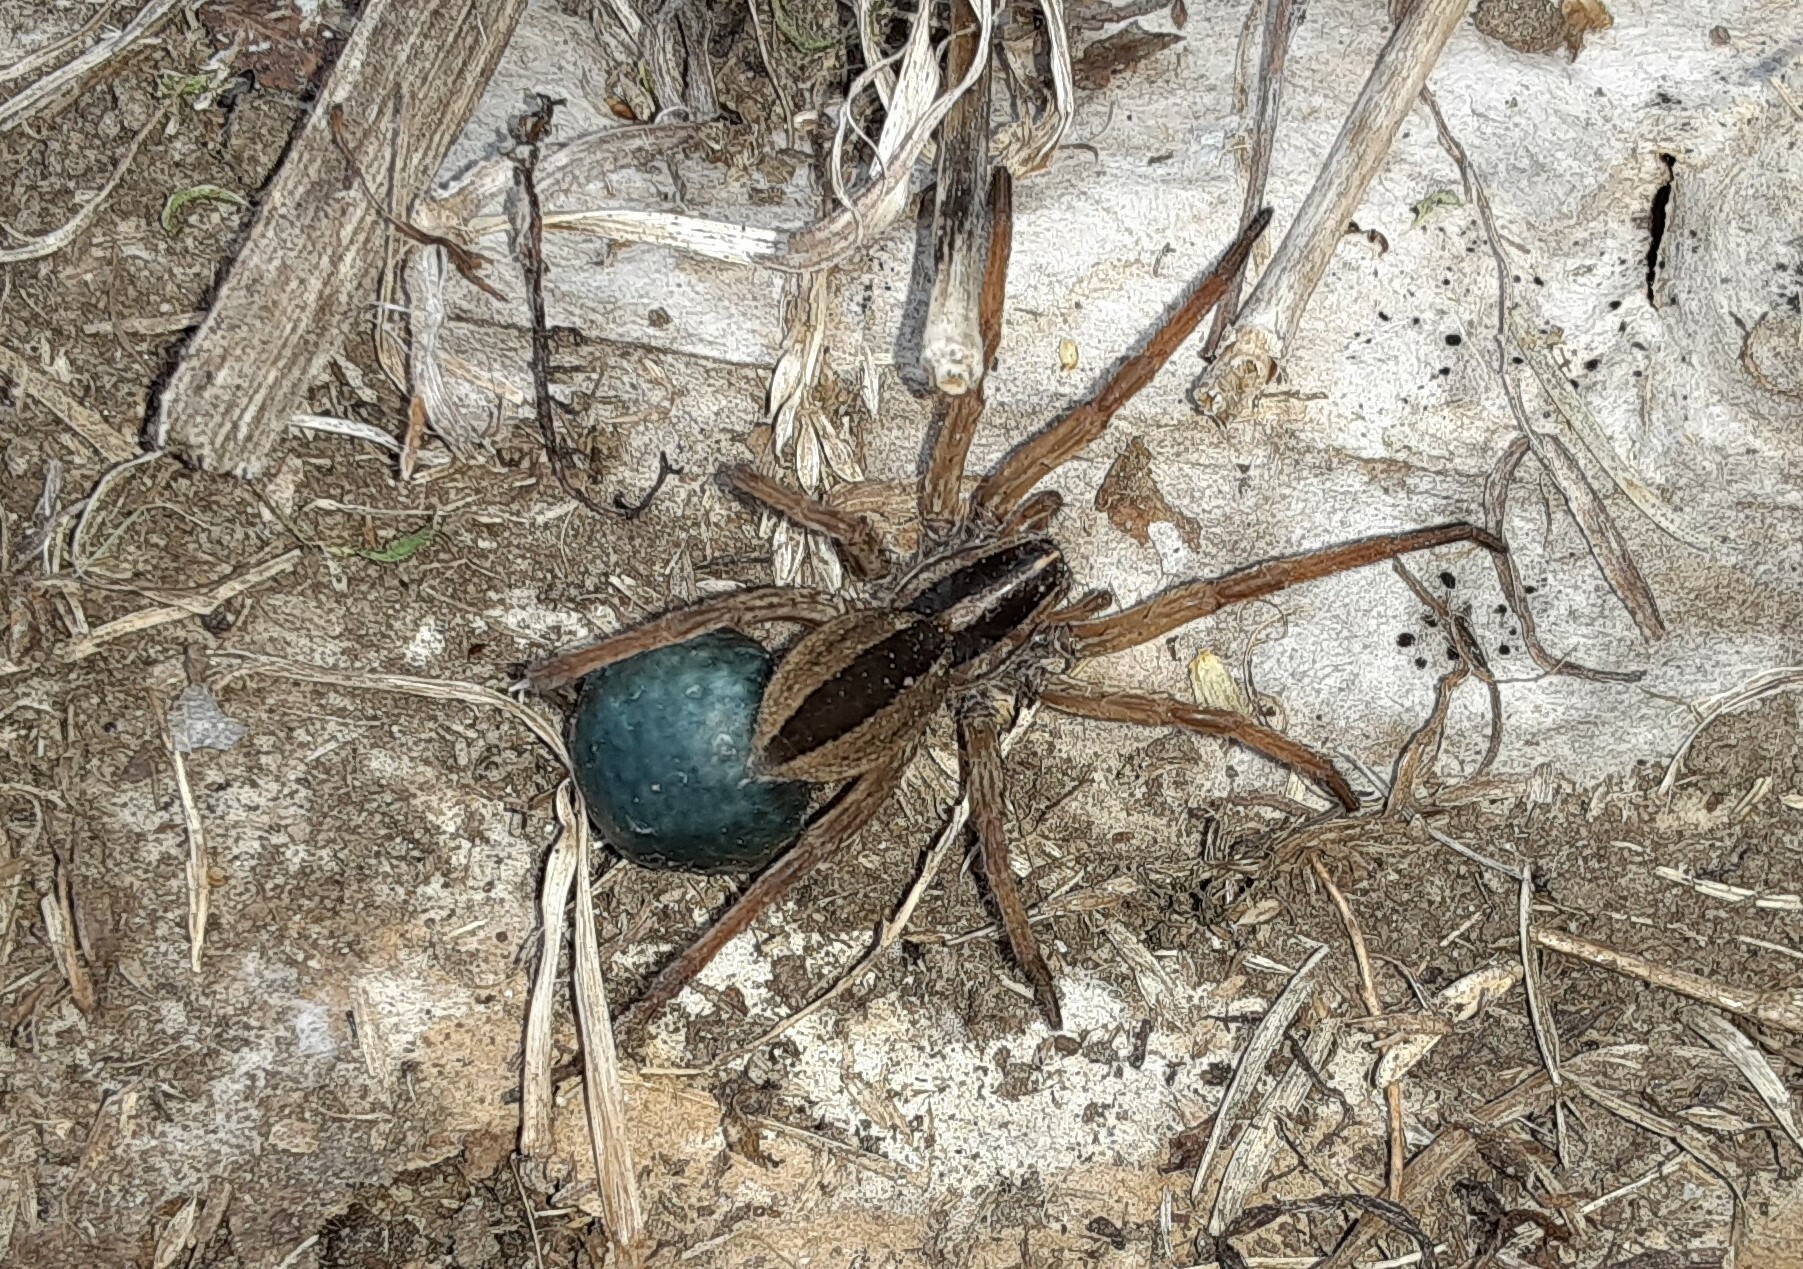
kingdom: Animalia
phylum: Arthropoda
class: Arachnida
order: Araneae
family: Lycosidae
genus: Rabidosa
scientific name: Rabidosa punctulata
